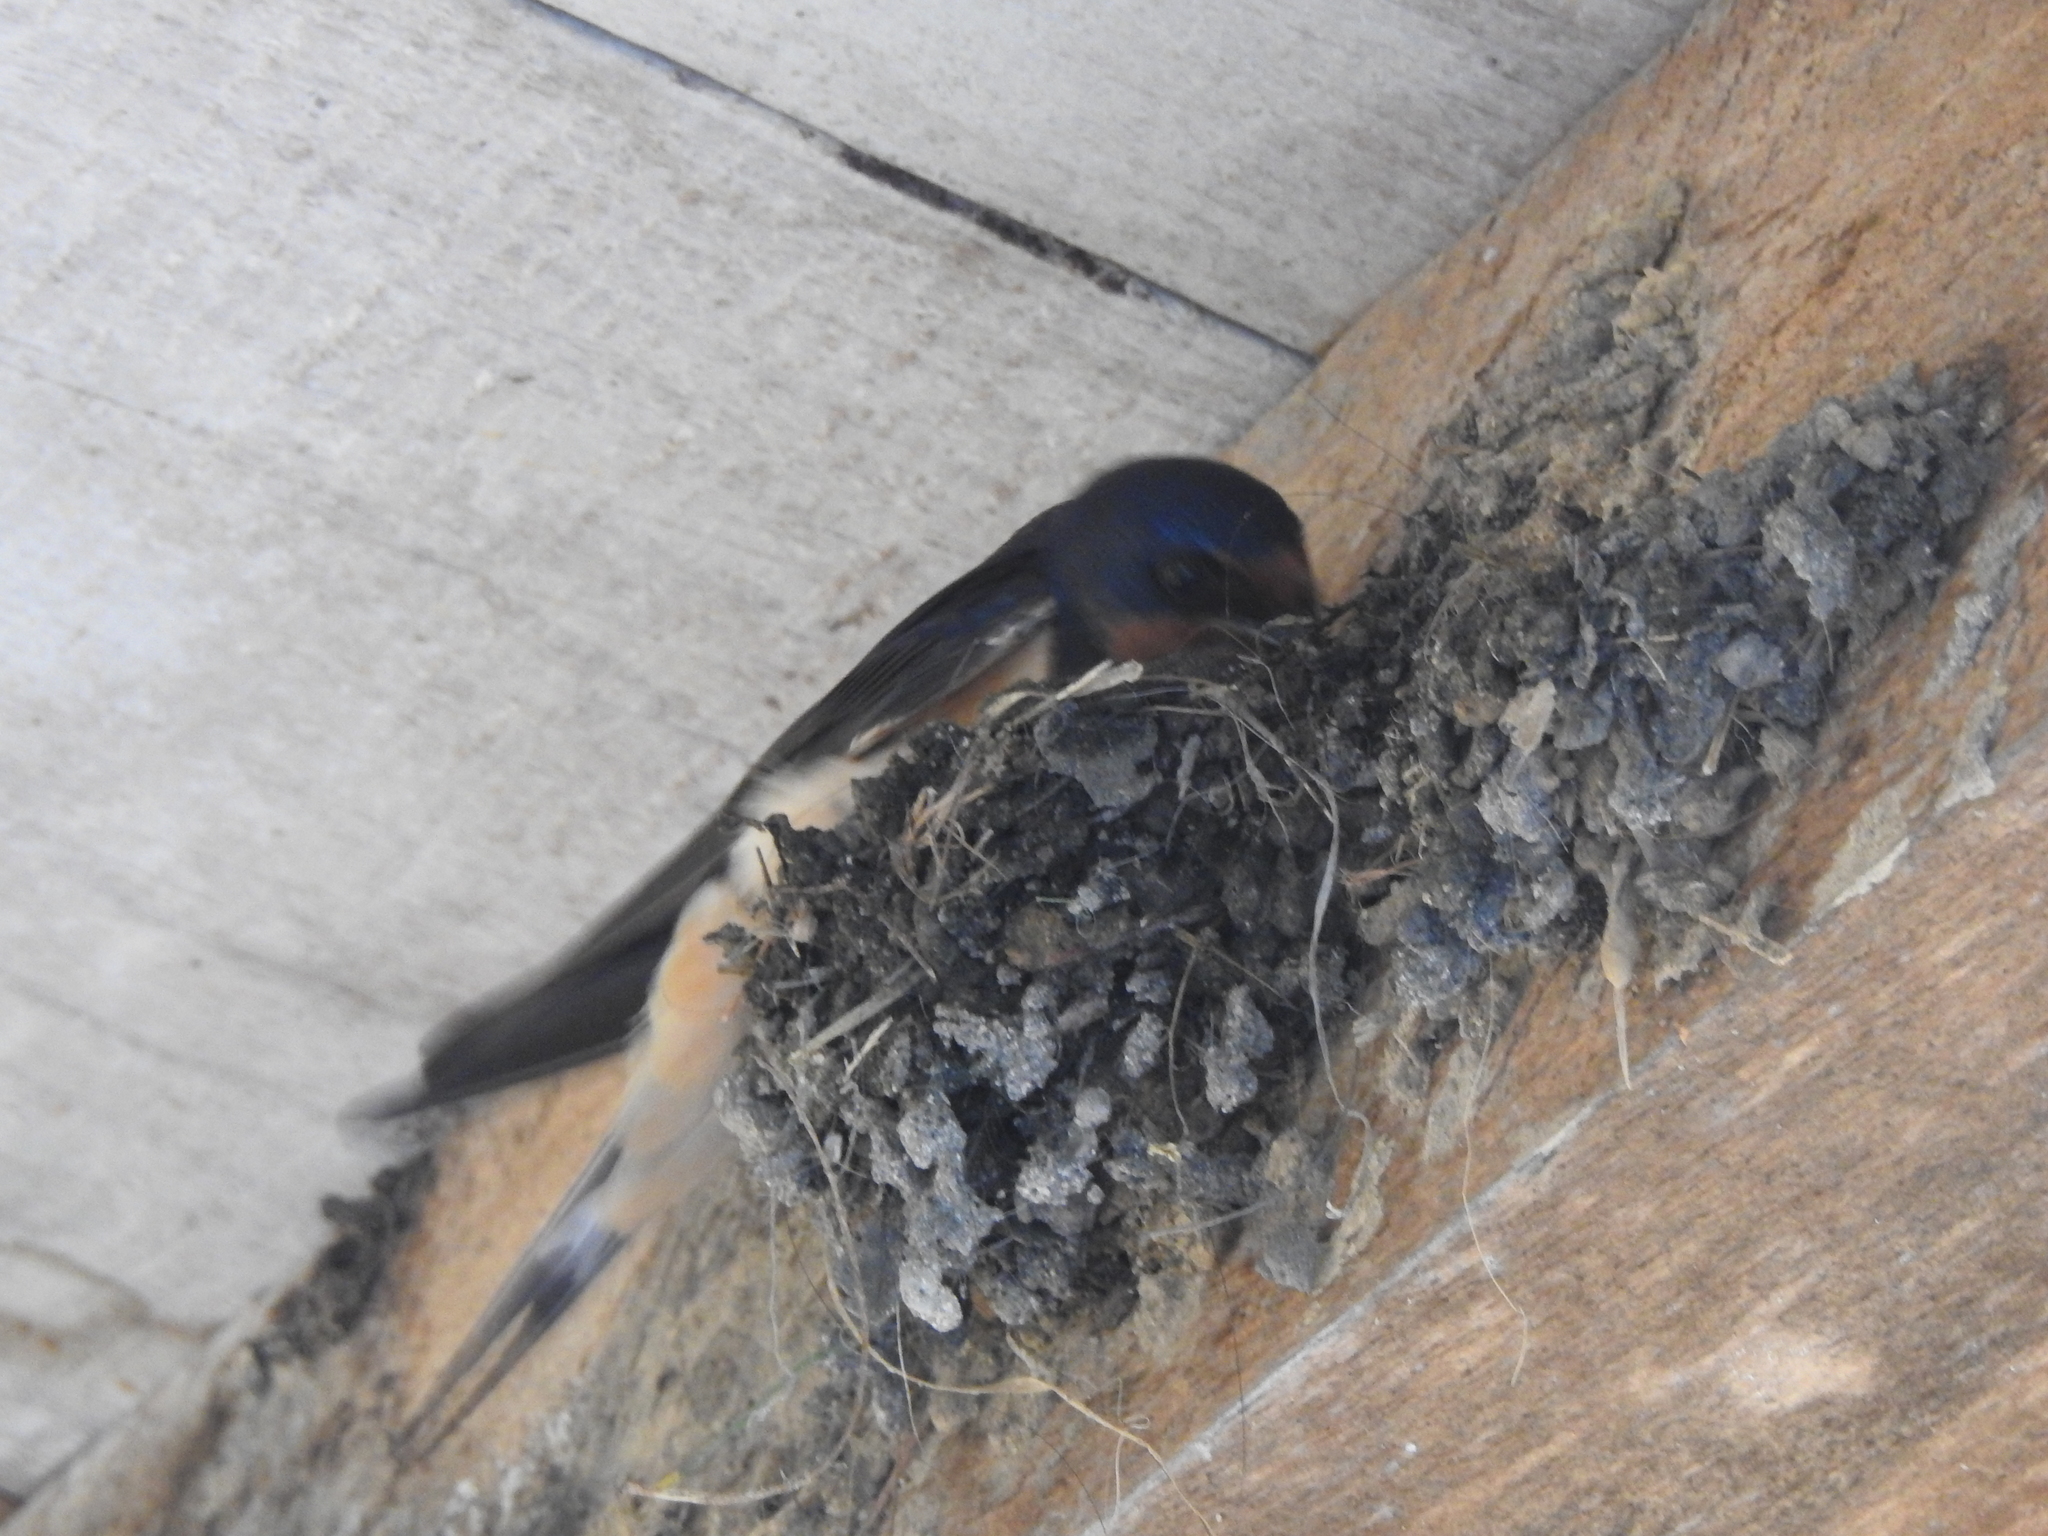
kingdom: Animalia
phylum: Chordata
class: Aves
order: Passeriformes
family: Hirundinidae
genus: Hirundo
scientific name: Hirundo rustica
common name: Barn swallow
